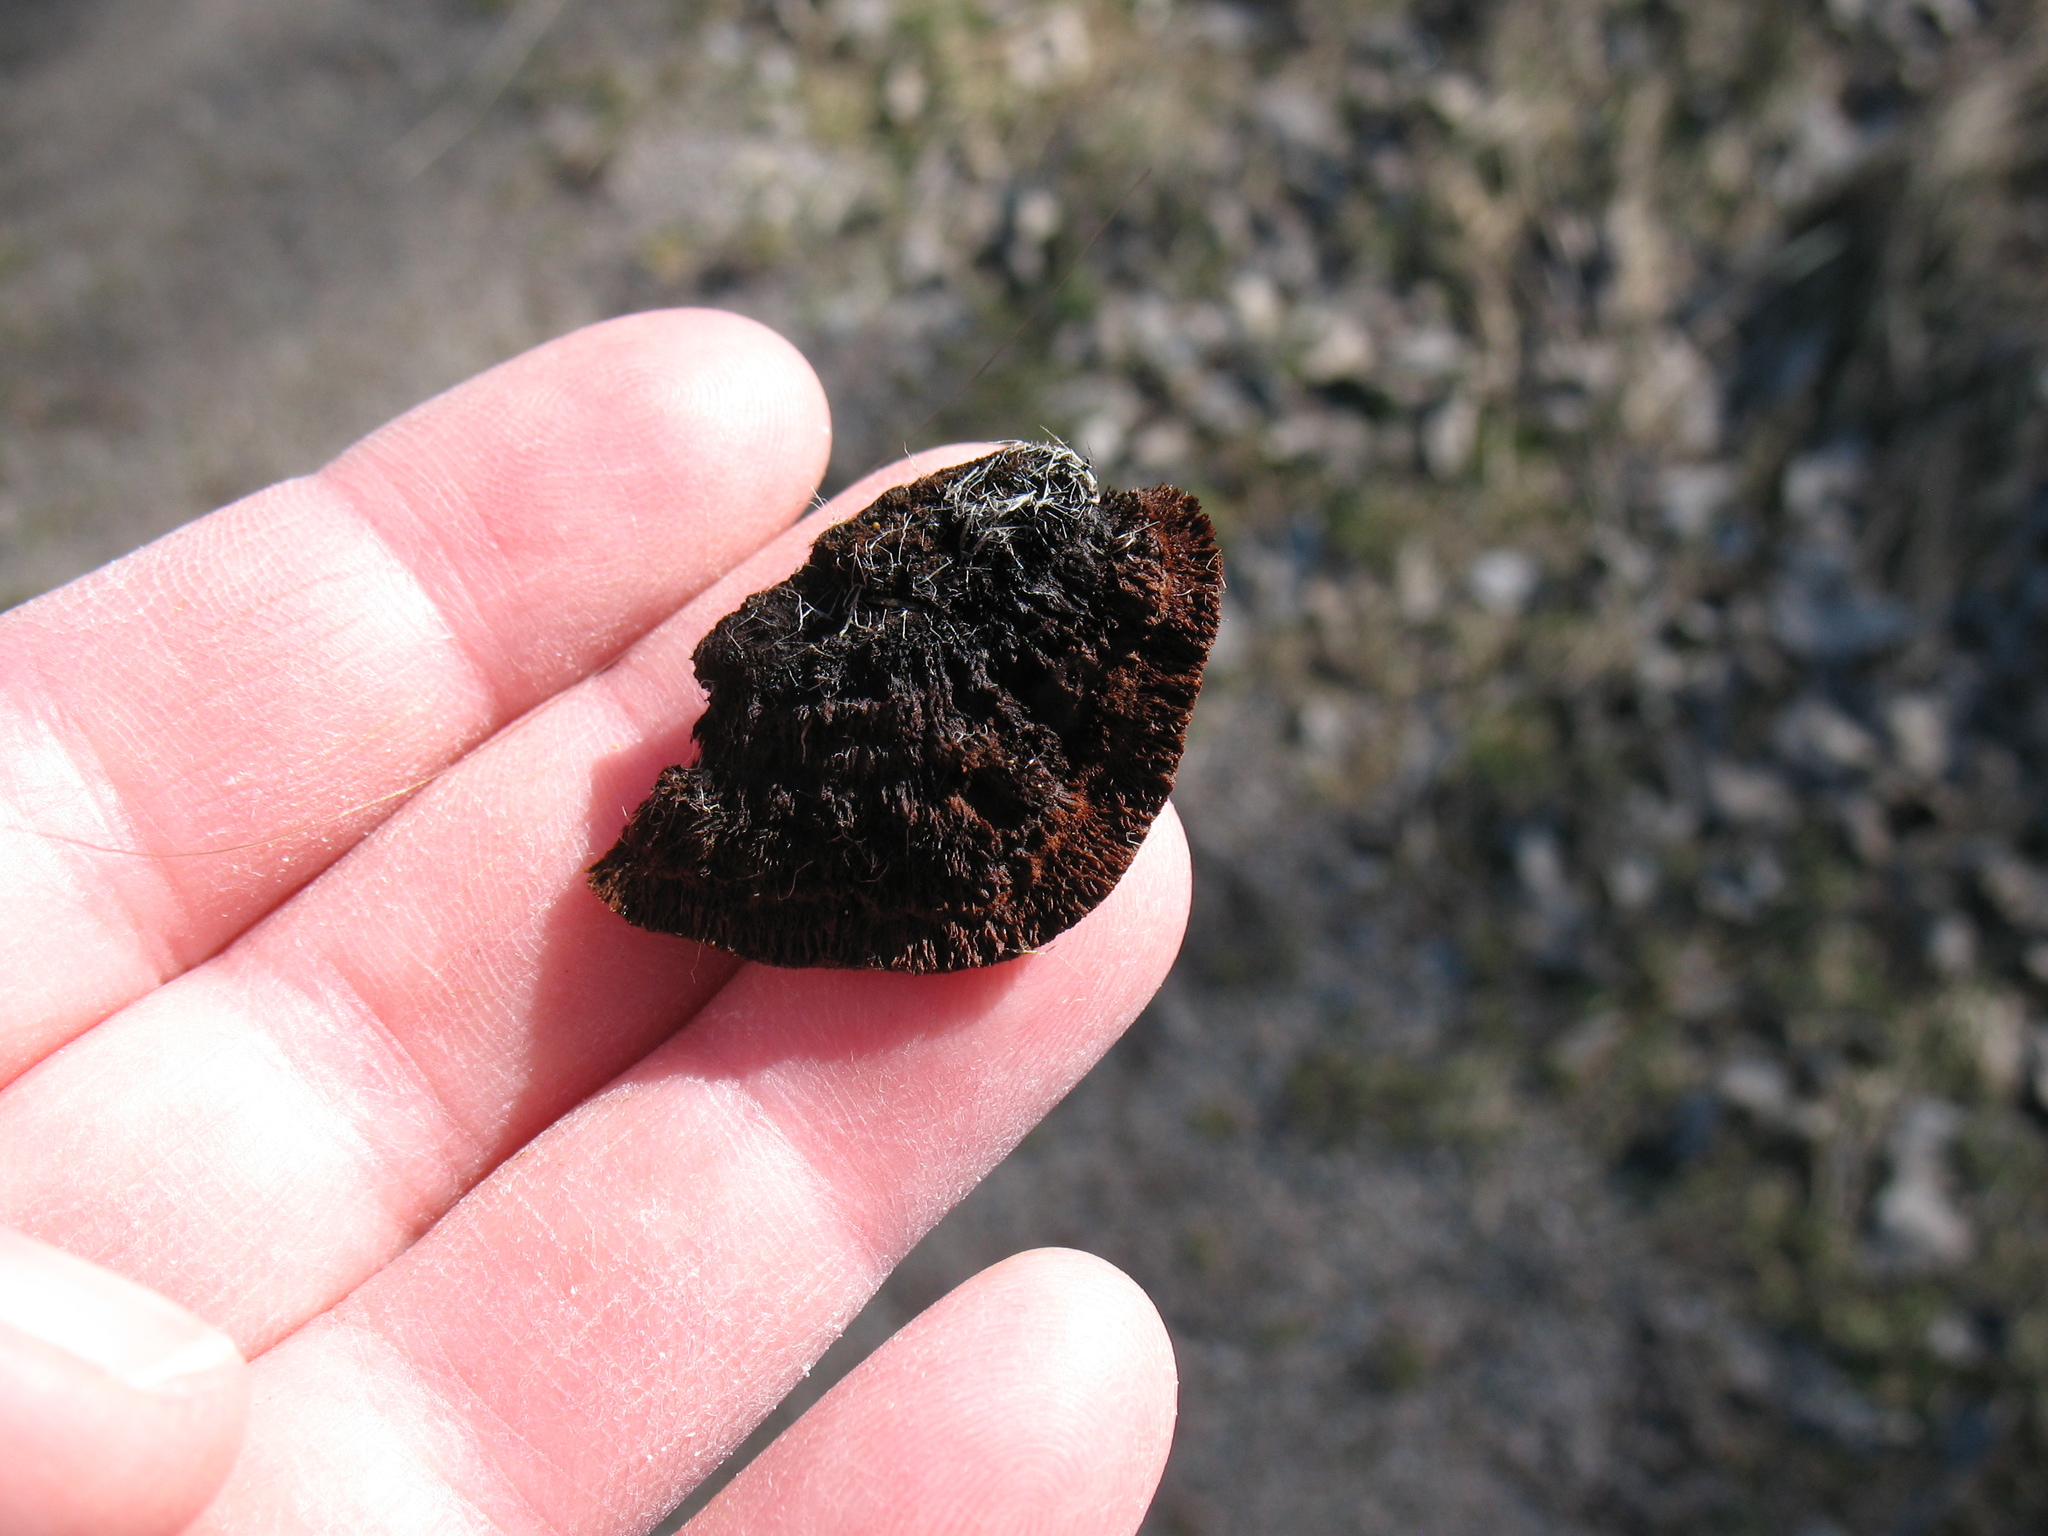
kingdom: Fungi
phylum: Basidiomycota
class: Agaricomycetes
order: Gloeophyllales
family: Gloeophyllaceae
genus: Gloeophyllum
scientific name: Gloeophyllum sepiarium
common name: Conifer mazegill
